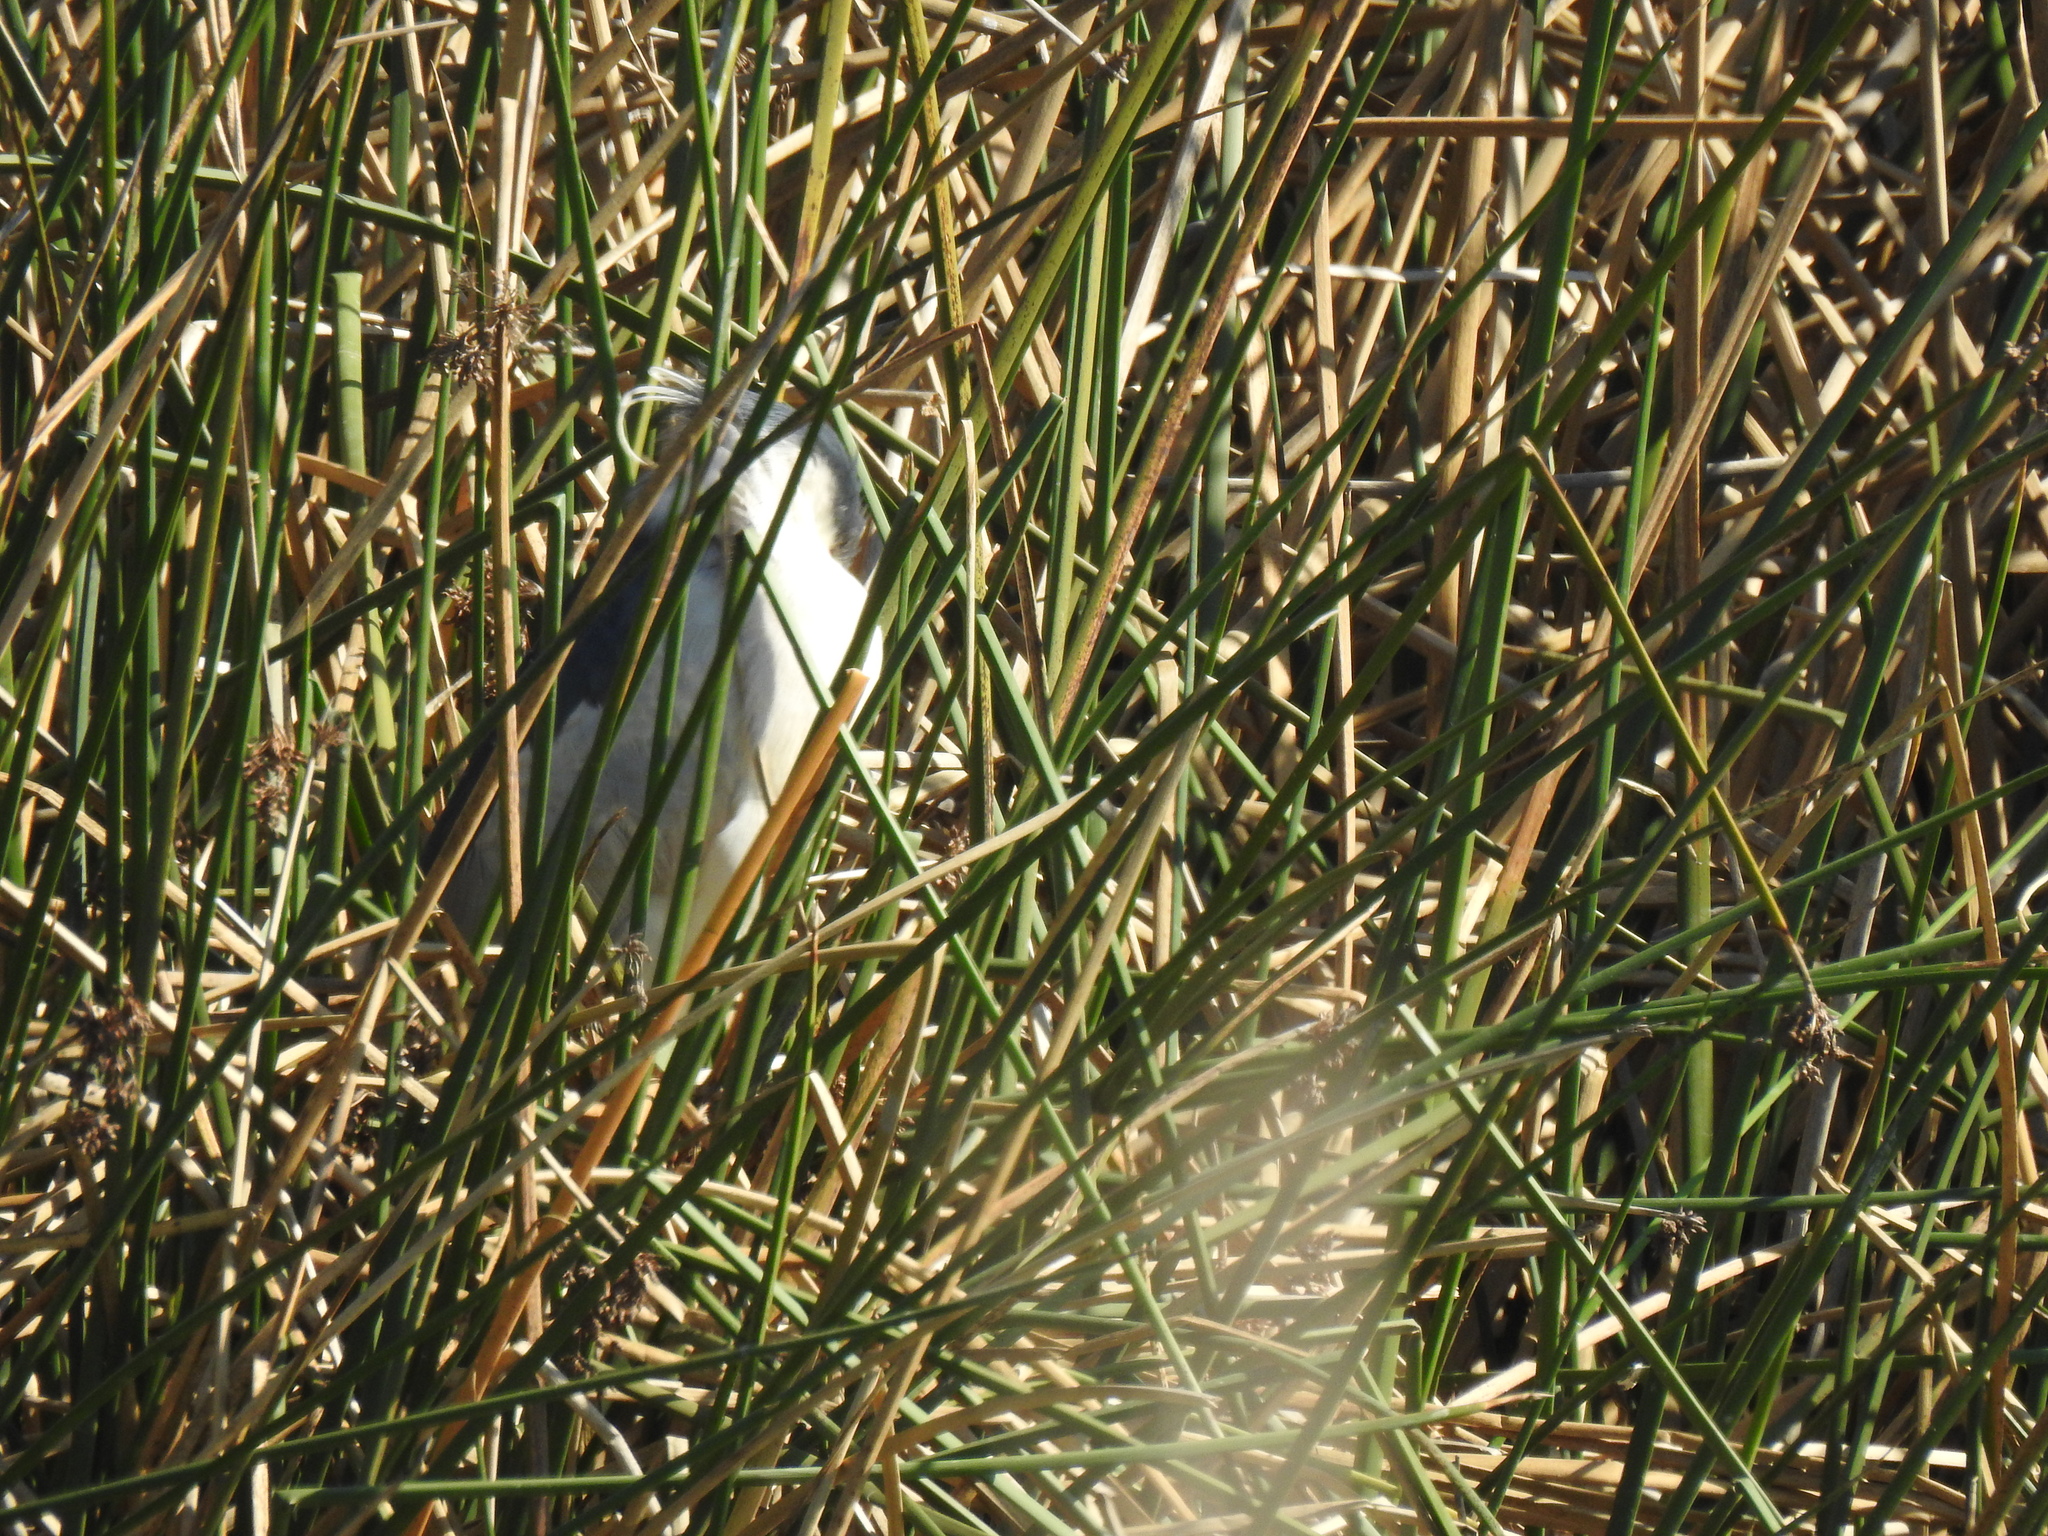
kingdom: Animalia
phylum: Chordata
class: Aves
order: Pelecaniformes
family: Ardeidae
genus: Nycticorax
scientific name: Nycticorax nycticorax
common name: Black-crowned night heron
